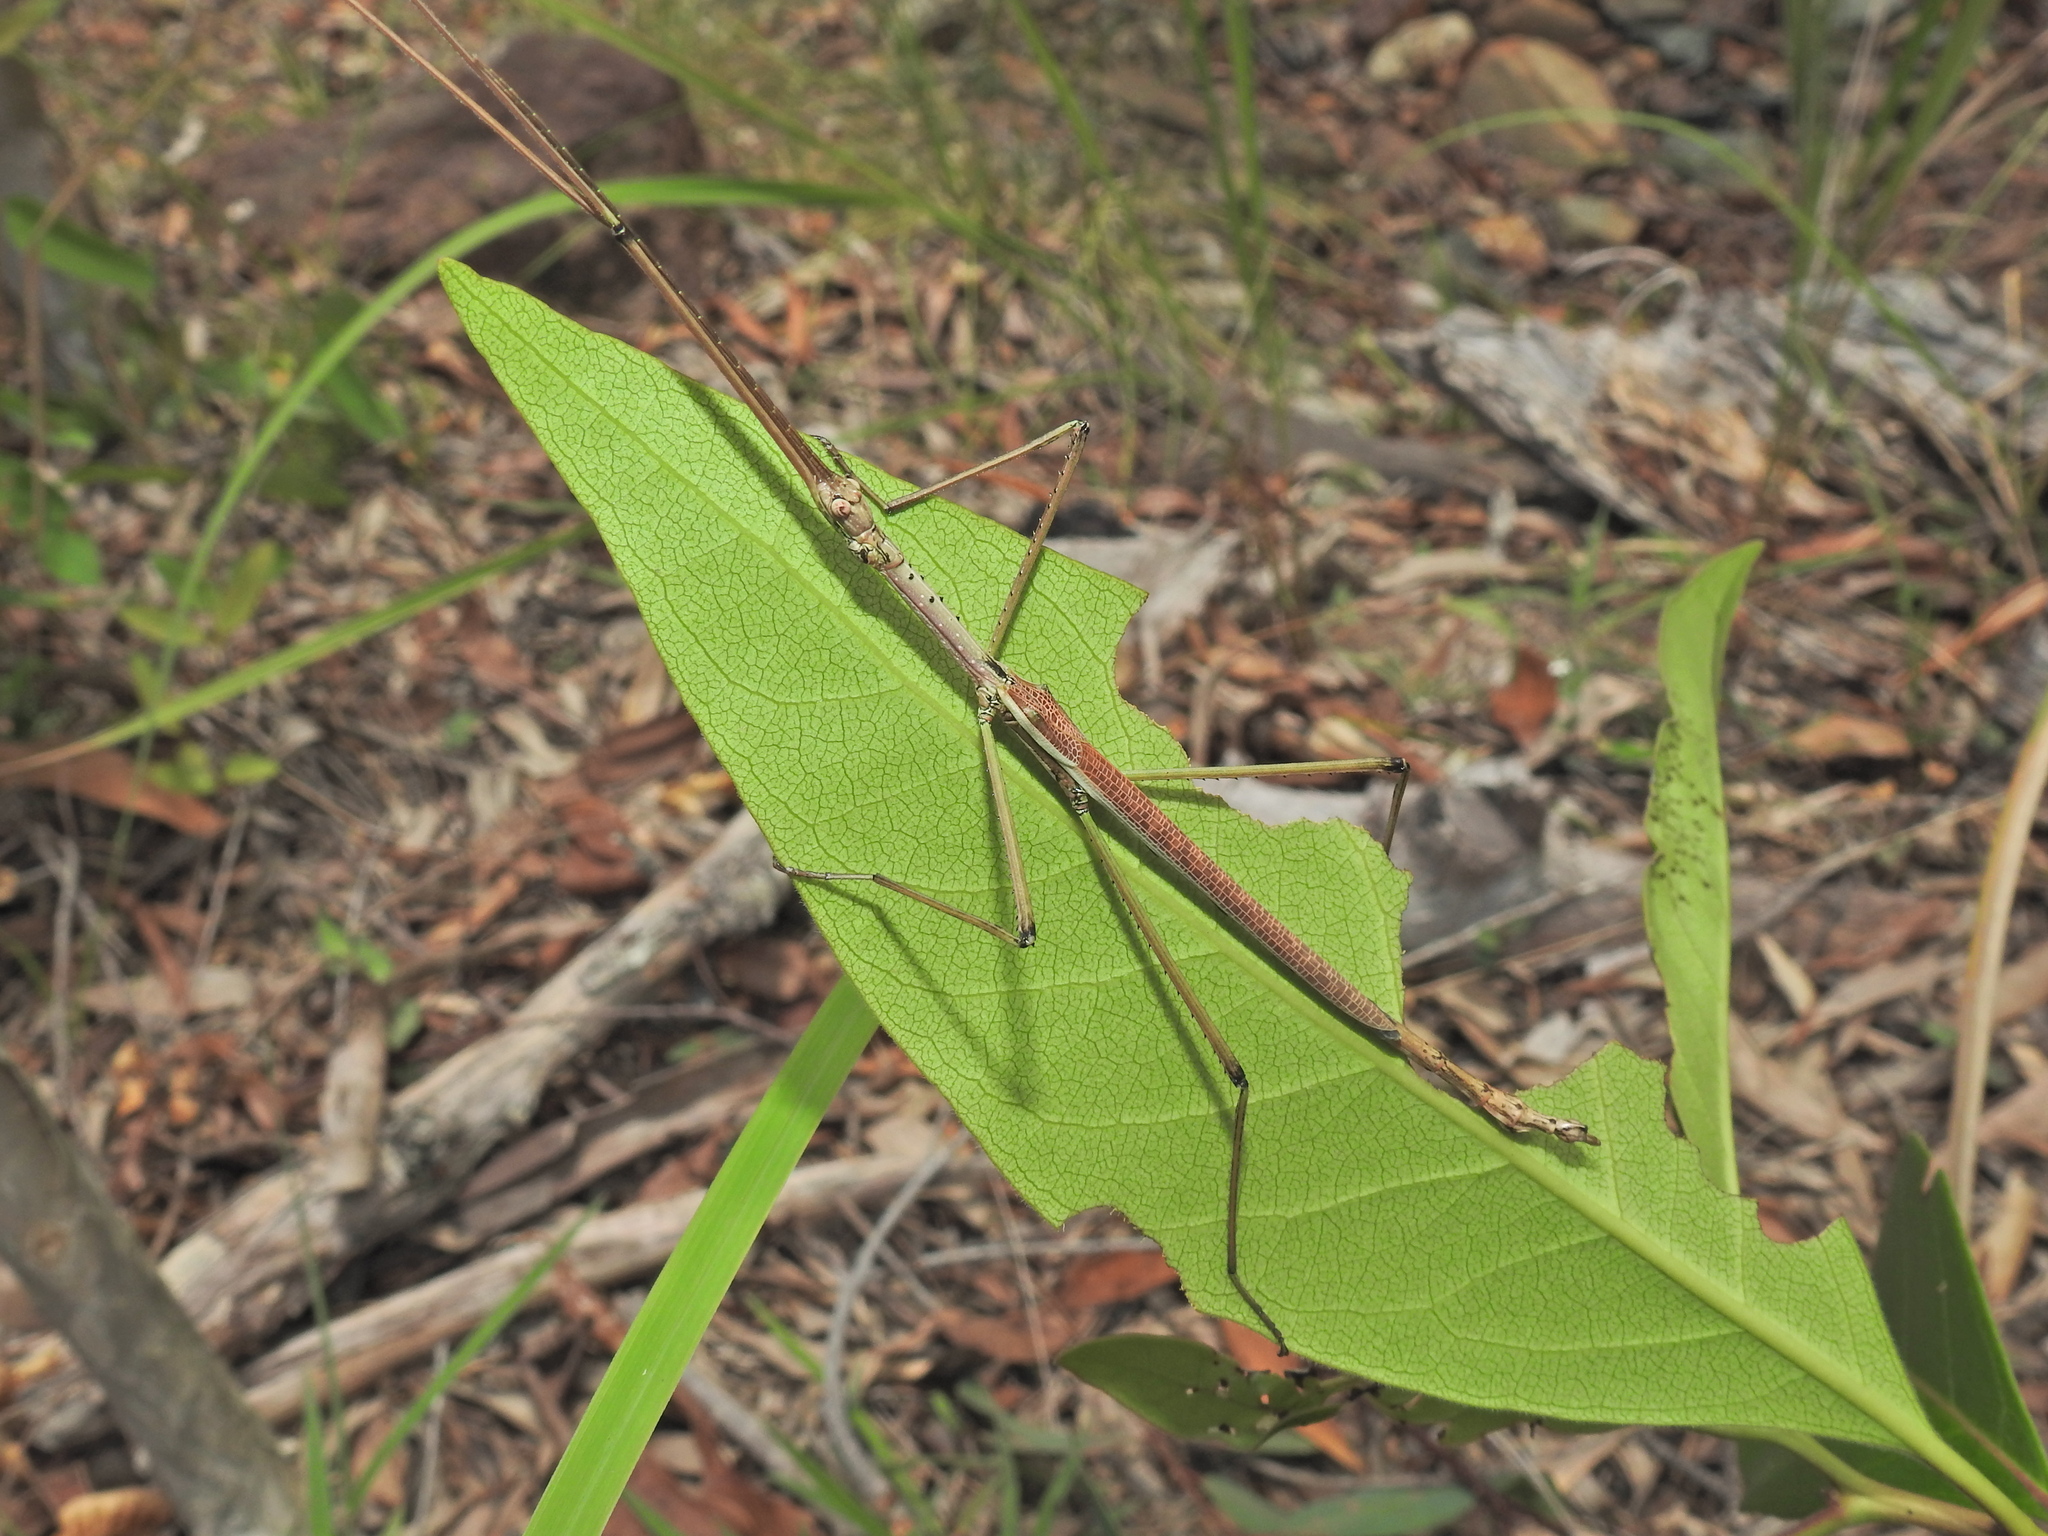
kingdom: Animalia
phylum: Arthropoda
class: Insecta
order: Phasmida
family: Phasmatidae
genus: Anchiale
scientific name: Anchiale austrotessulata
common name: Tessellated stick-insect
